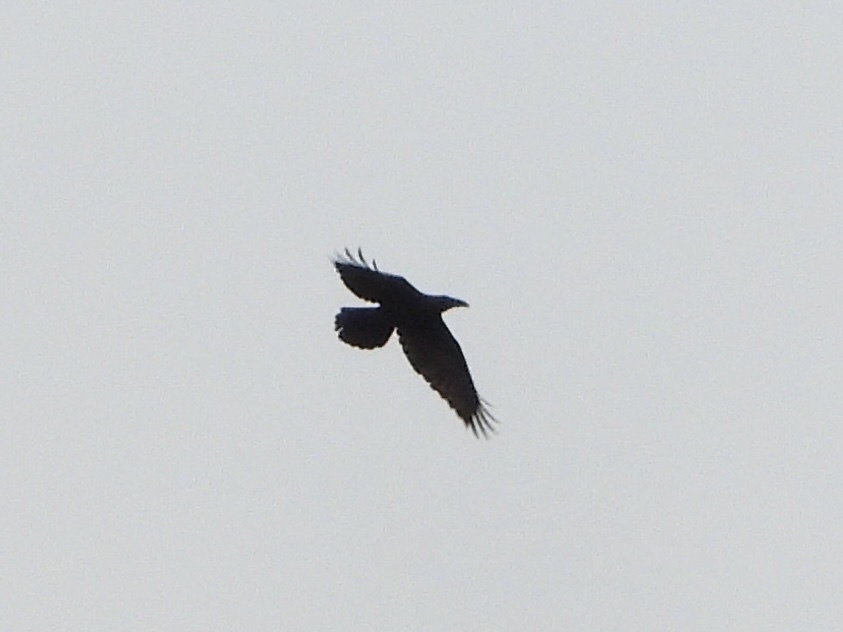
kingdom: Animalia
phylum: Chordata
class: Aves
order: Passeriformes
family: Corvidae
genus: Corvus
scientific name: Corvus corax
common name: Common raven
